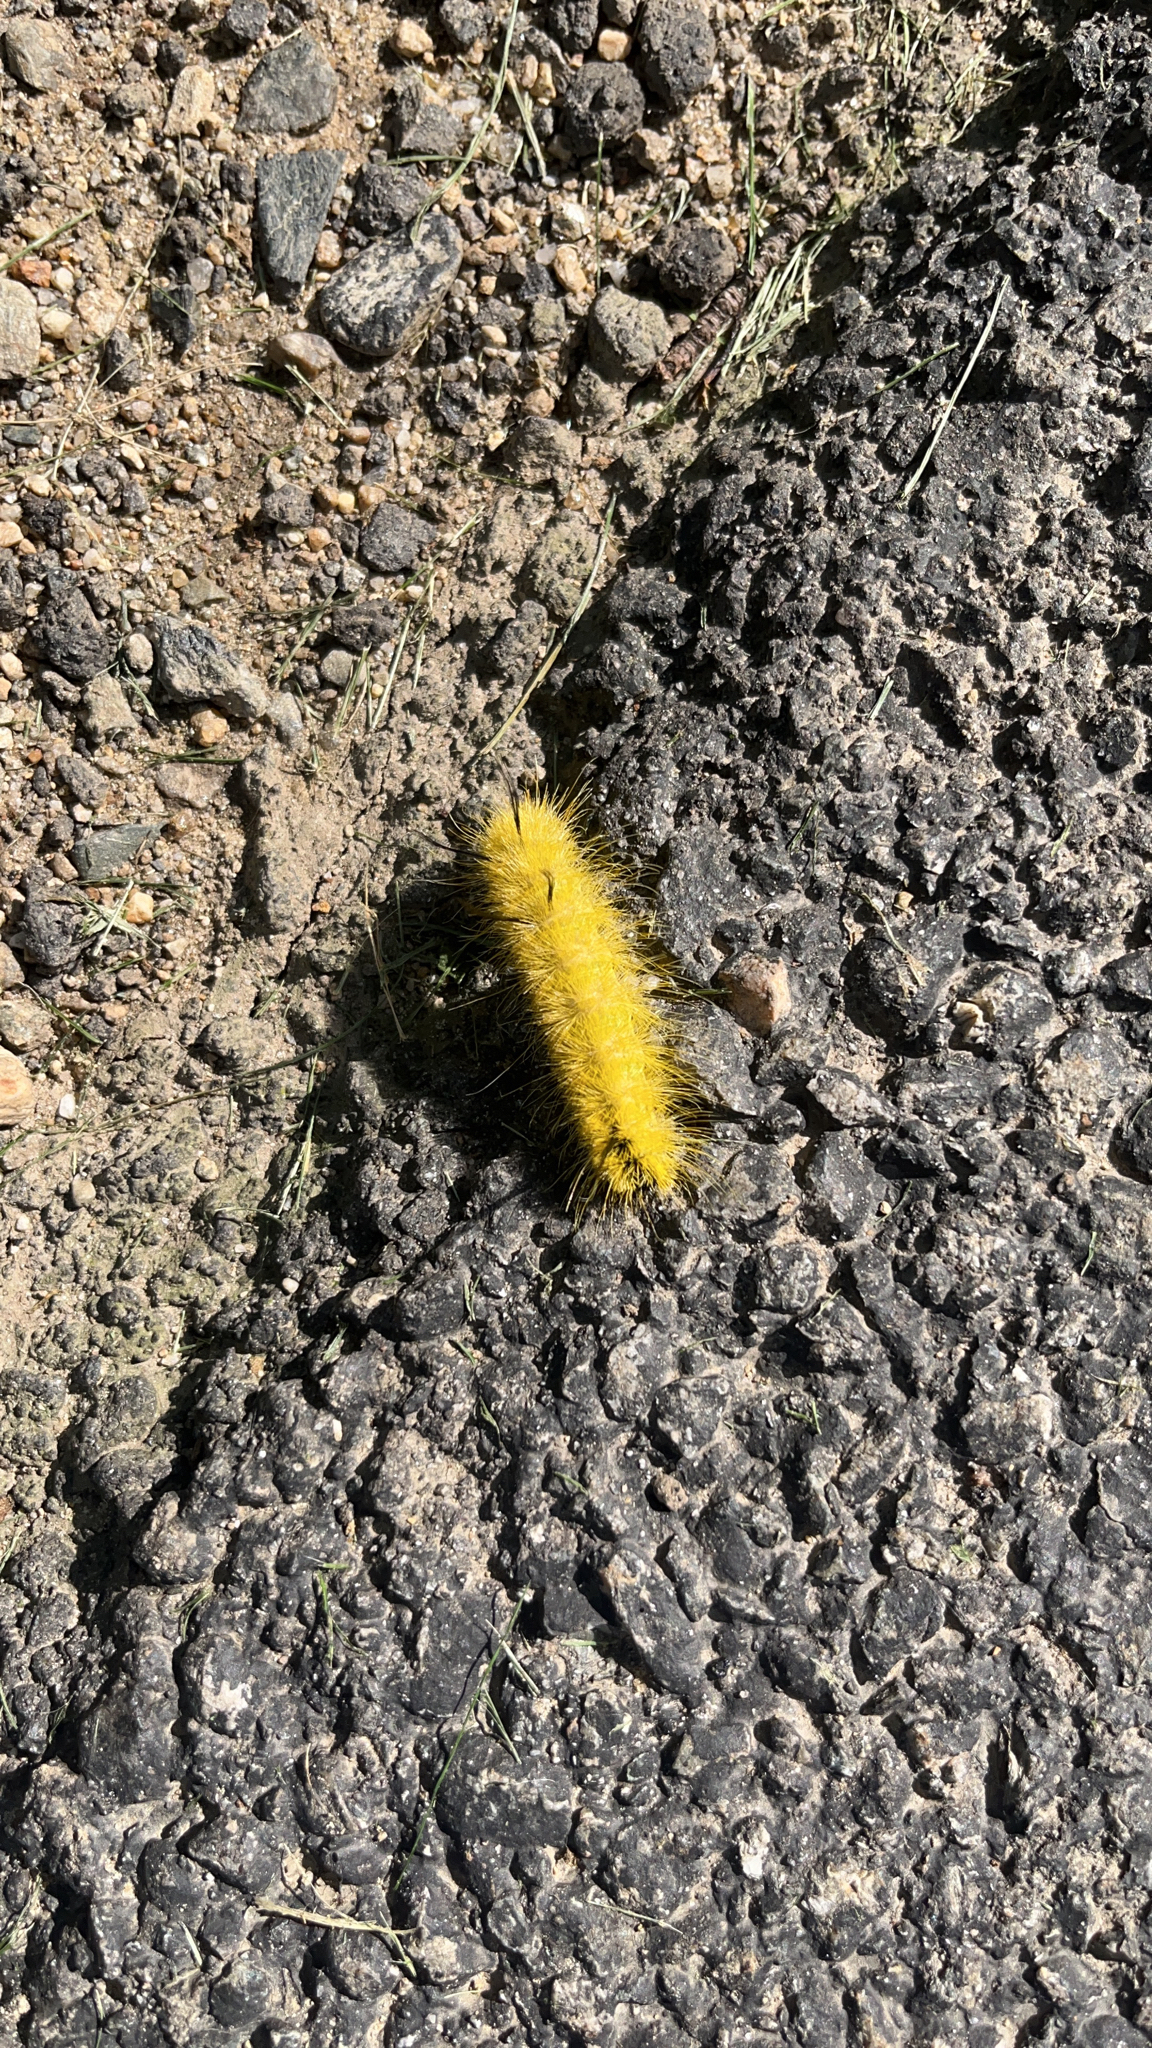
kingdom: Animalia
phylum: Arthropoda
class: Insecta
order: Lepidoptera
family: Noctuidae
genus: Acronicta
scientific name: Acronicta americana
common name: American dagger
